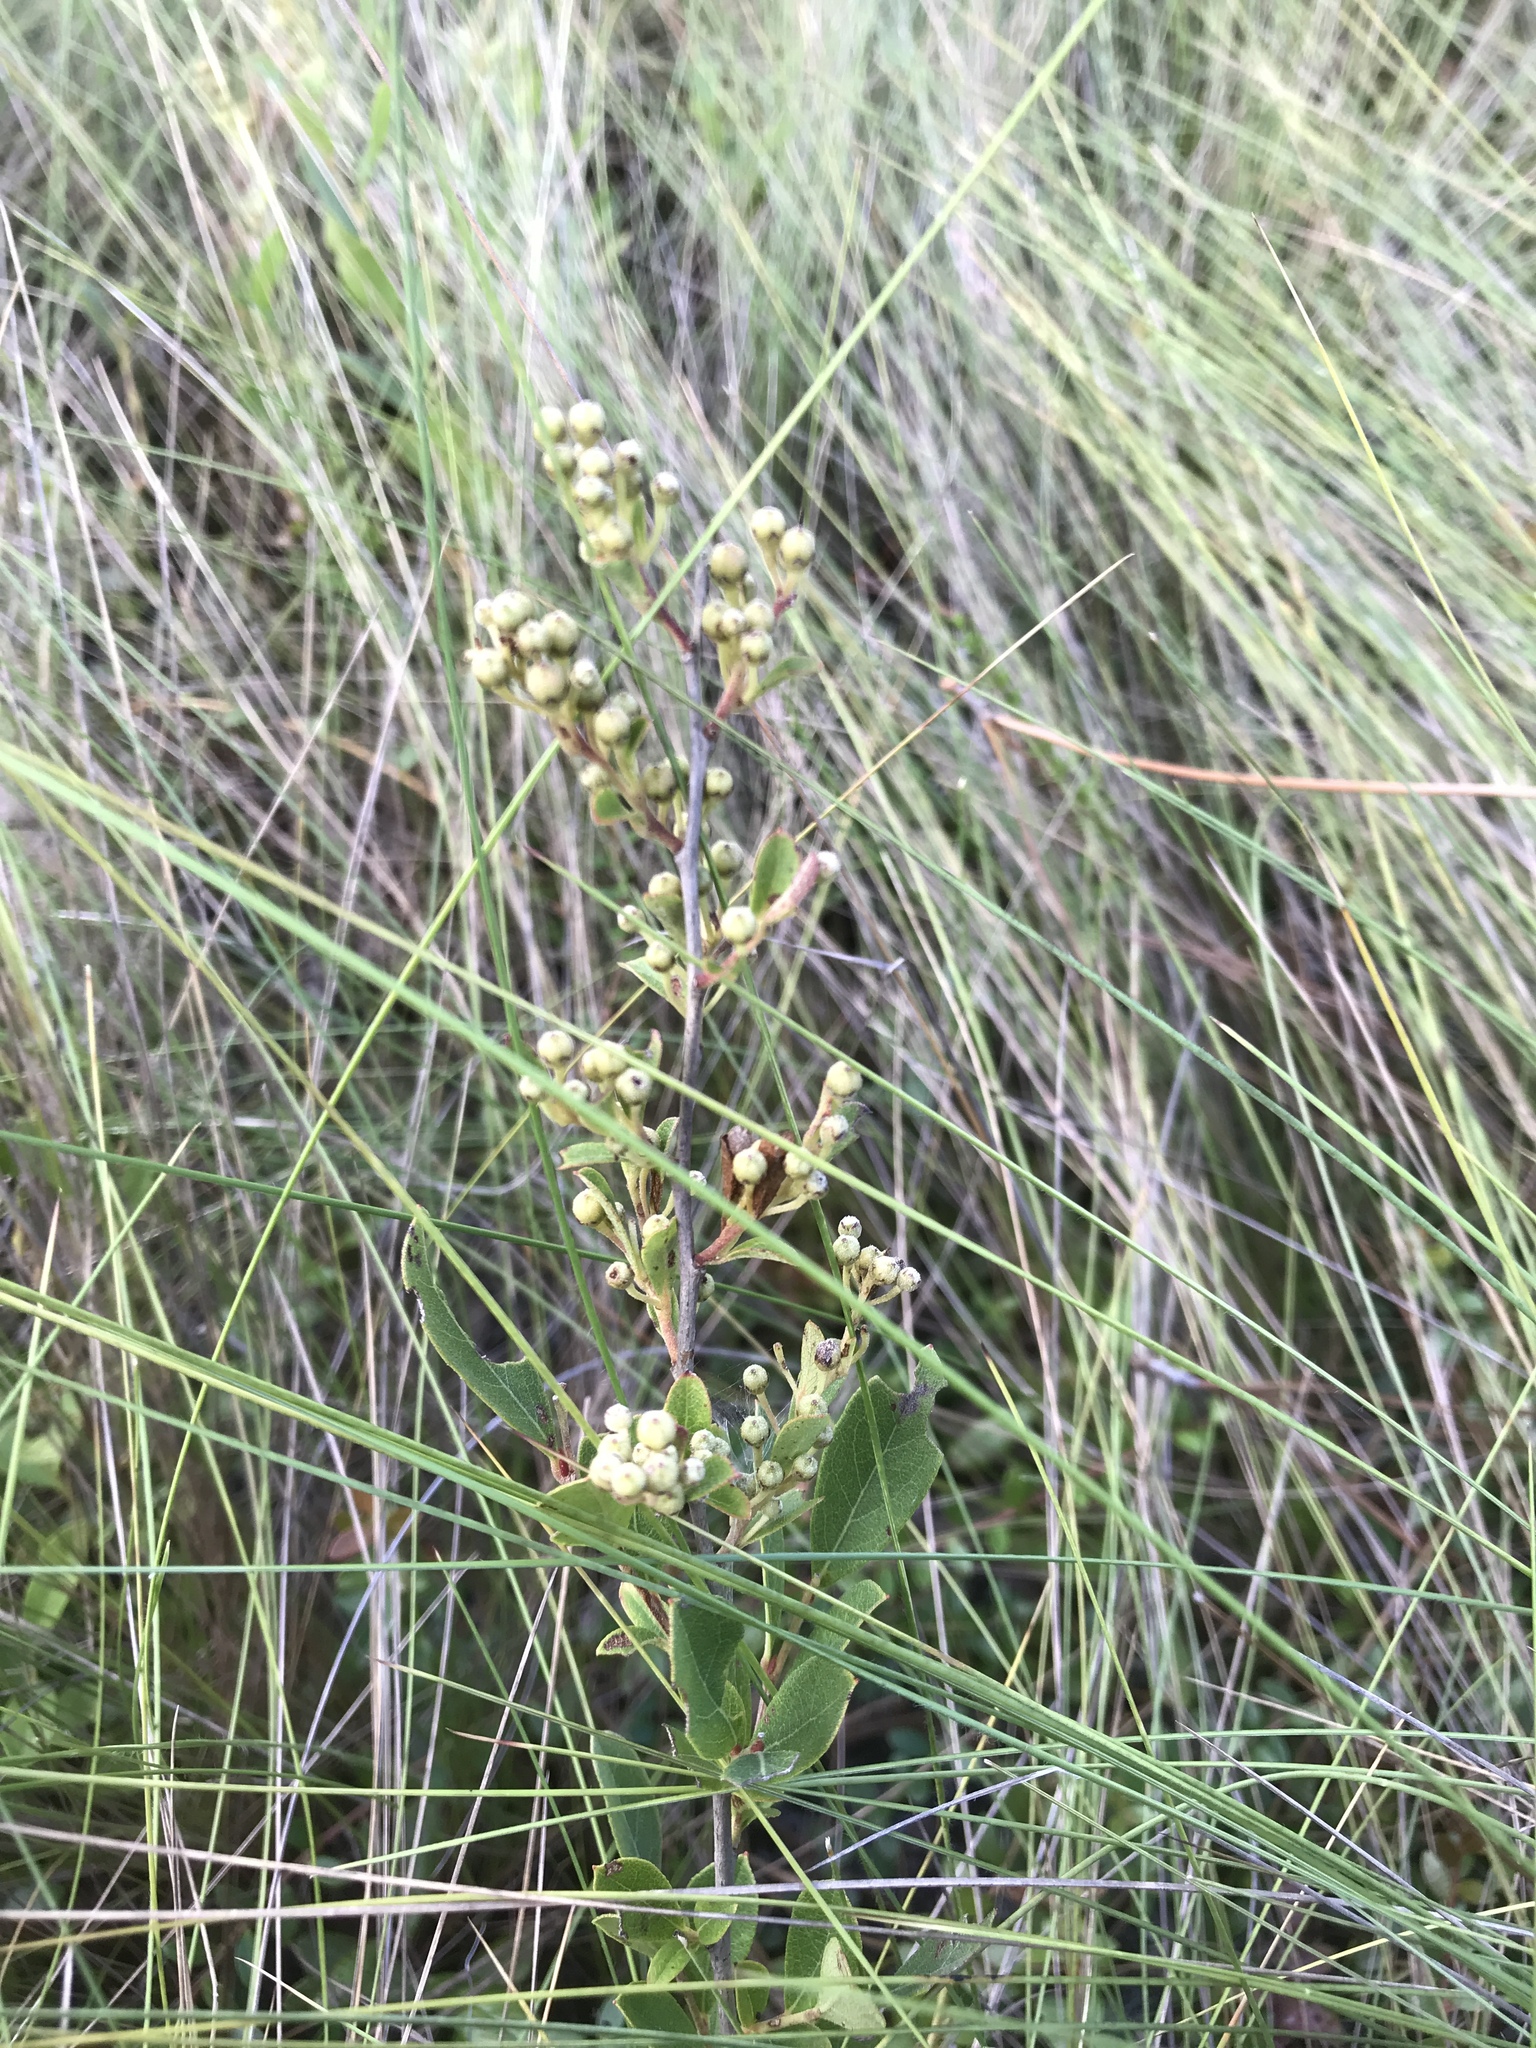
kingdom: Plantae
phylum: Tracheophyta
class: Magnoliopsida
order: Ericales
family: Ericaceae
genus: Lyonia
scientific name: Lyonia ligustrina
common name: Maleberry
